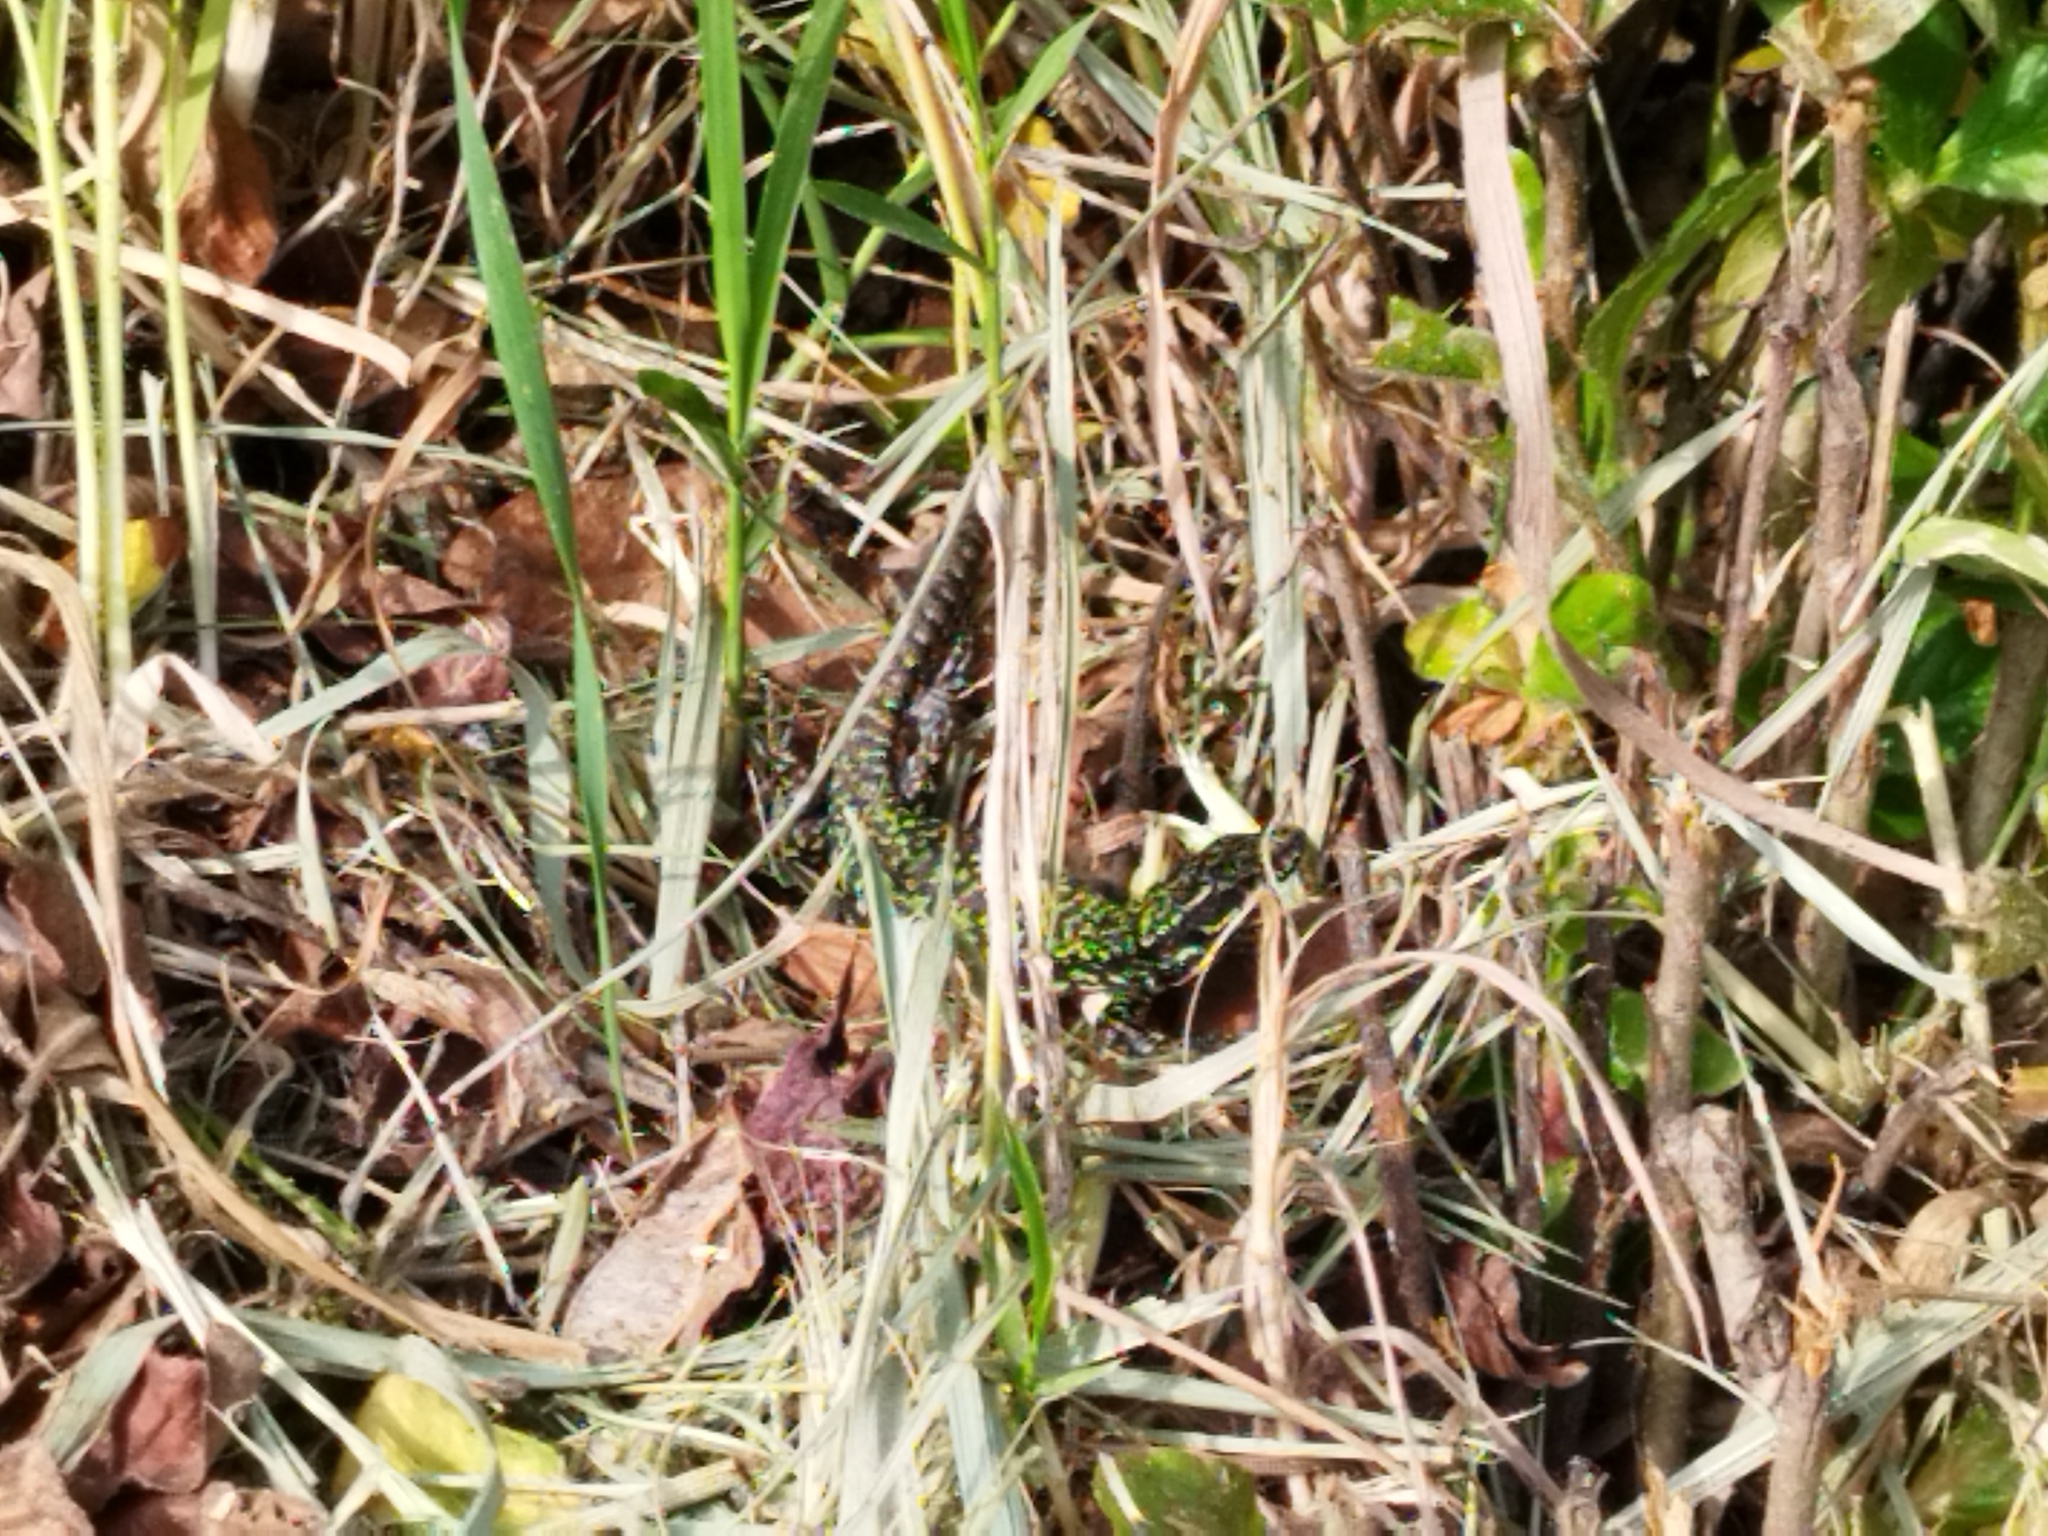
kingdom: Animalia
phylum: Chordata
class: Squamata
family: Lacertidae
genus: Podarcis
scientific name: Podarcis muralis
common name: Common wall lizard
